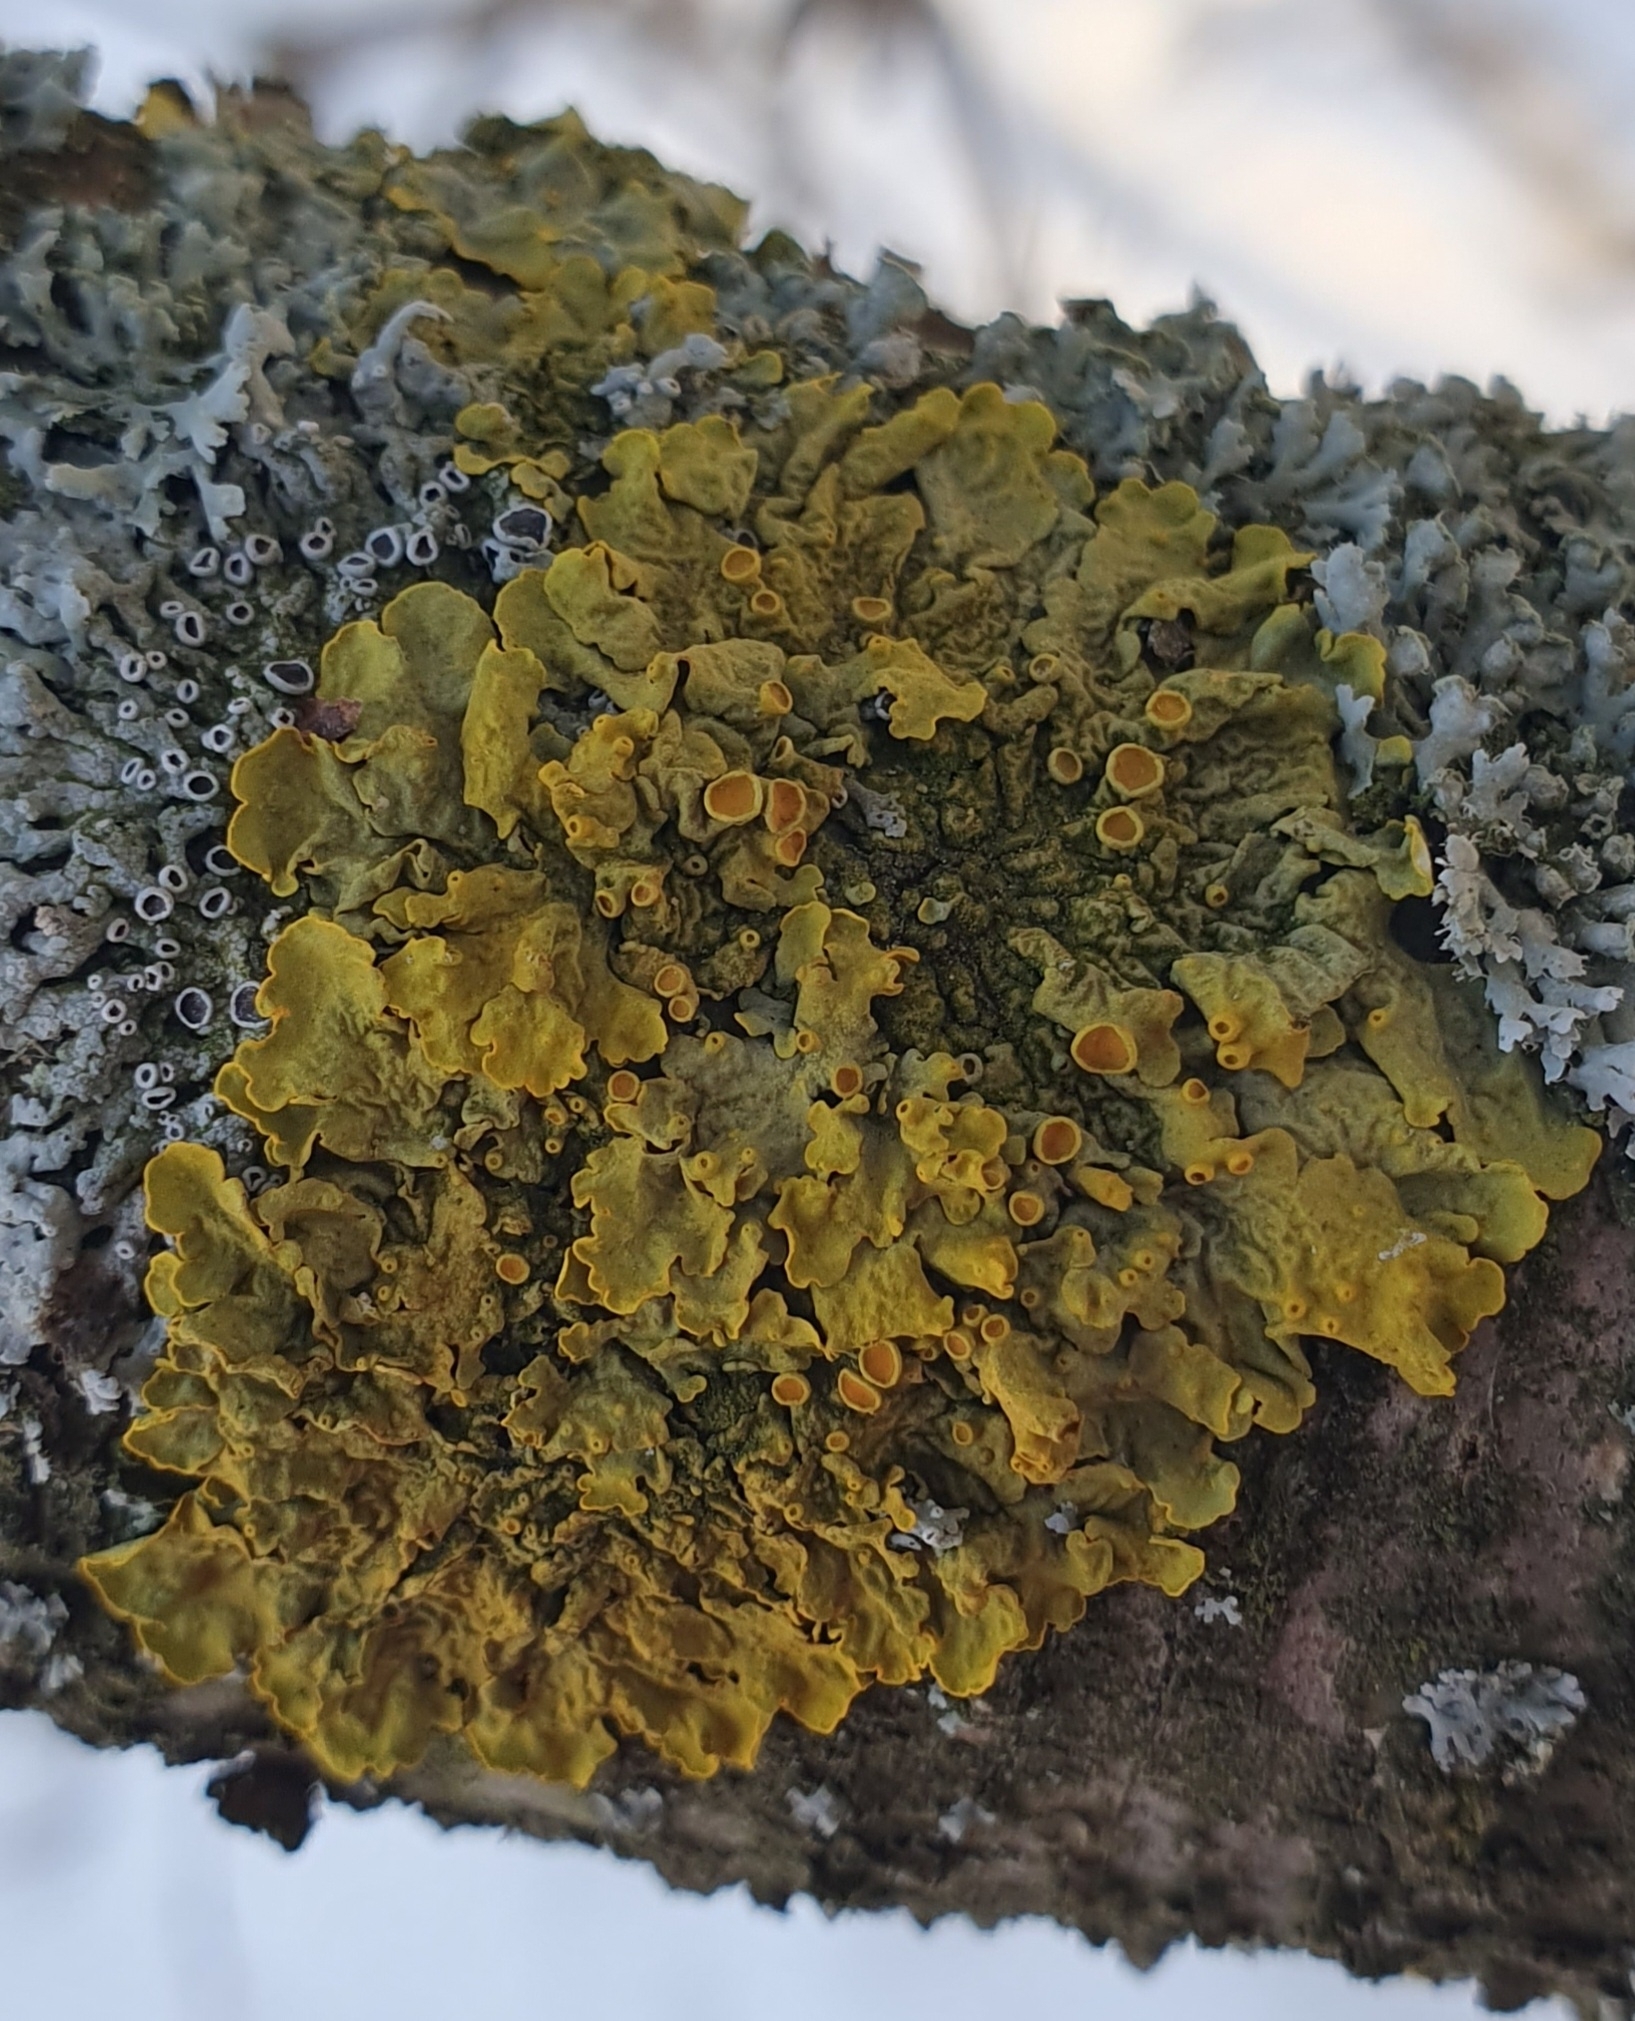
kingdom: Fungi
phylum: Ascomycota
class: Lecanoromycetes
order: Teloschistales
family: Teloschistaceae
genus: Xanthoria
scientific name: Xanthoria parietina
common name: Common orange lichen
